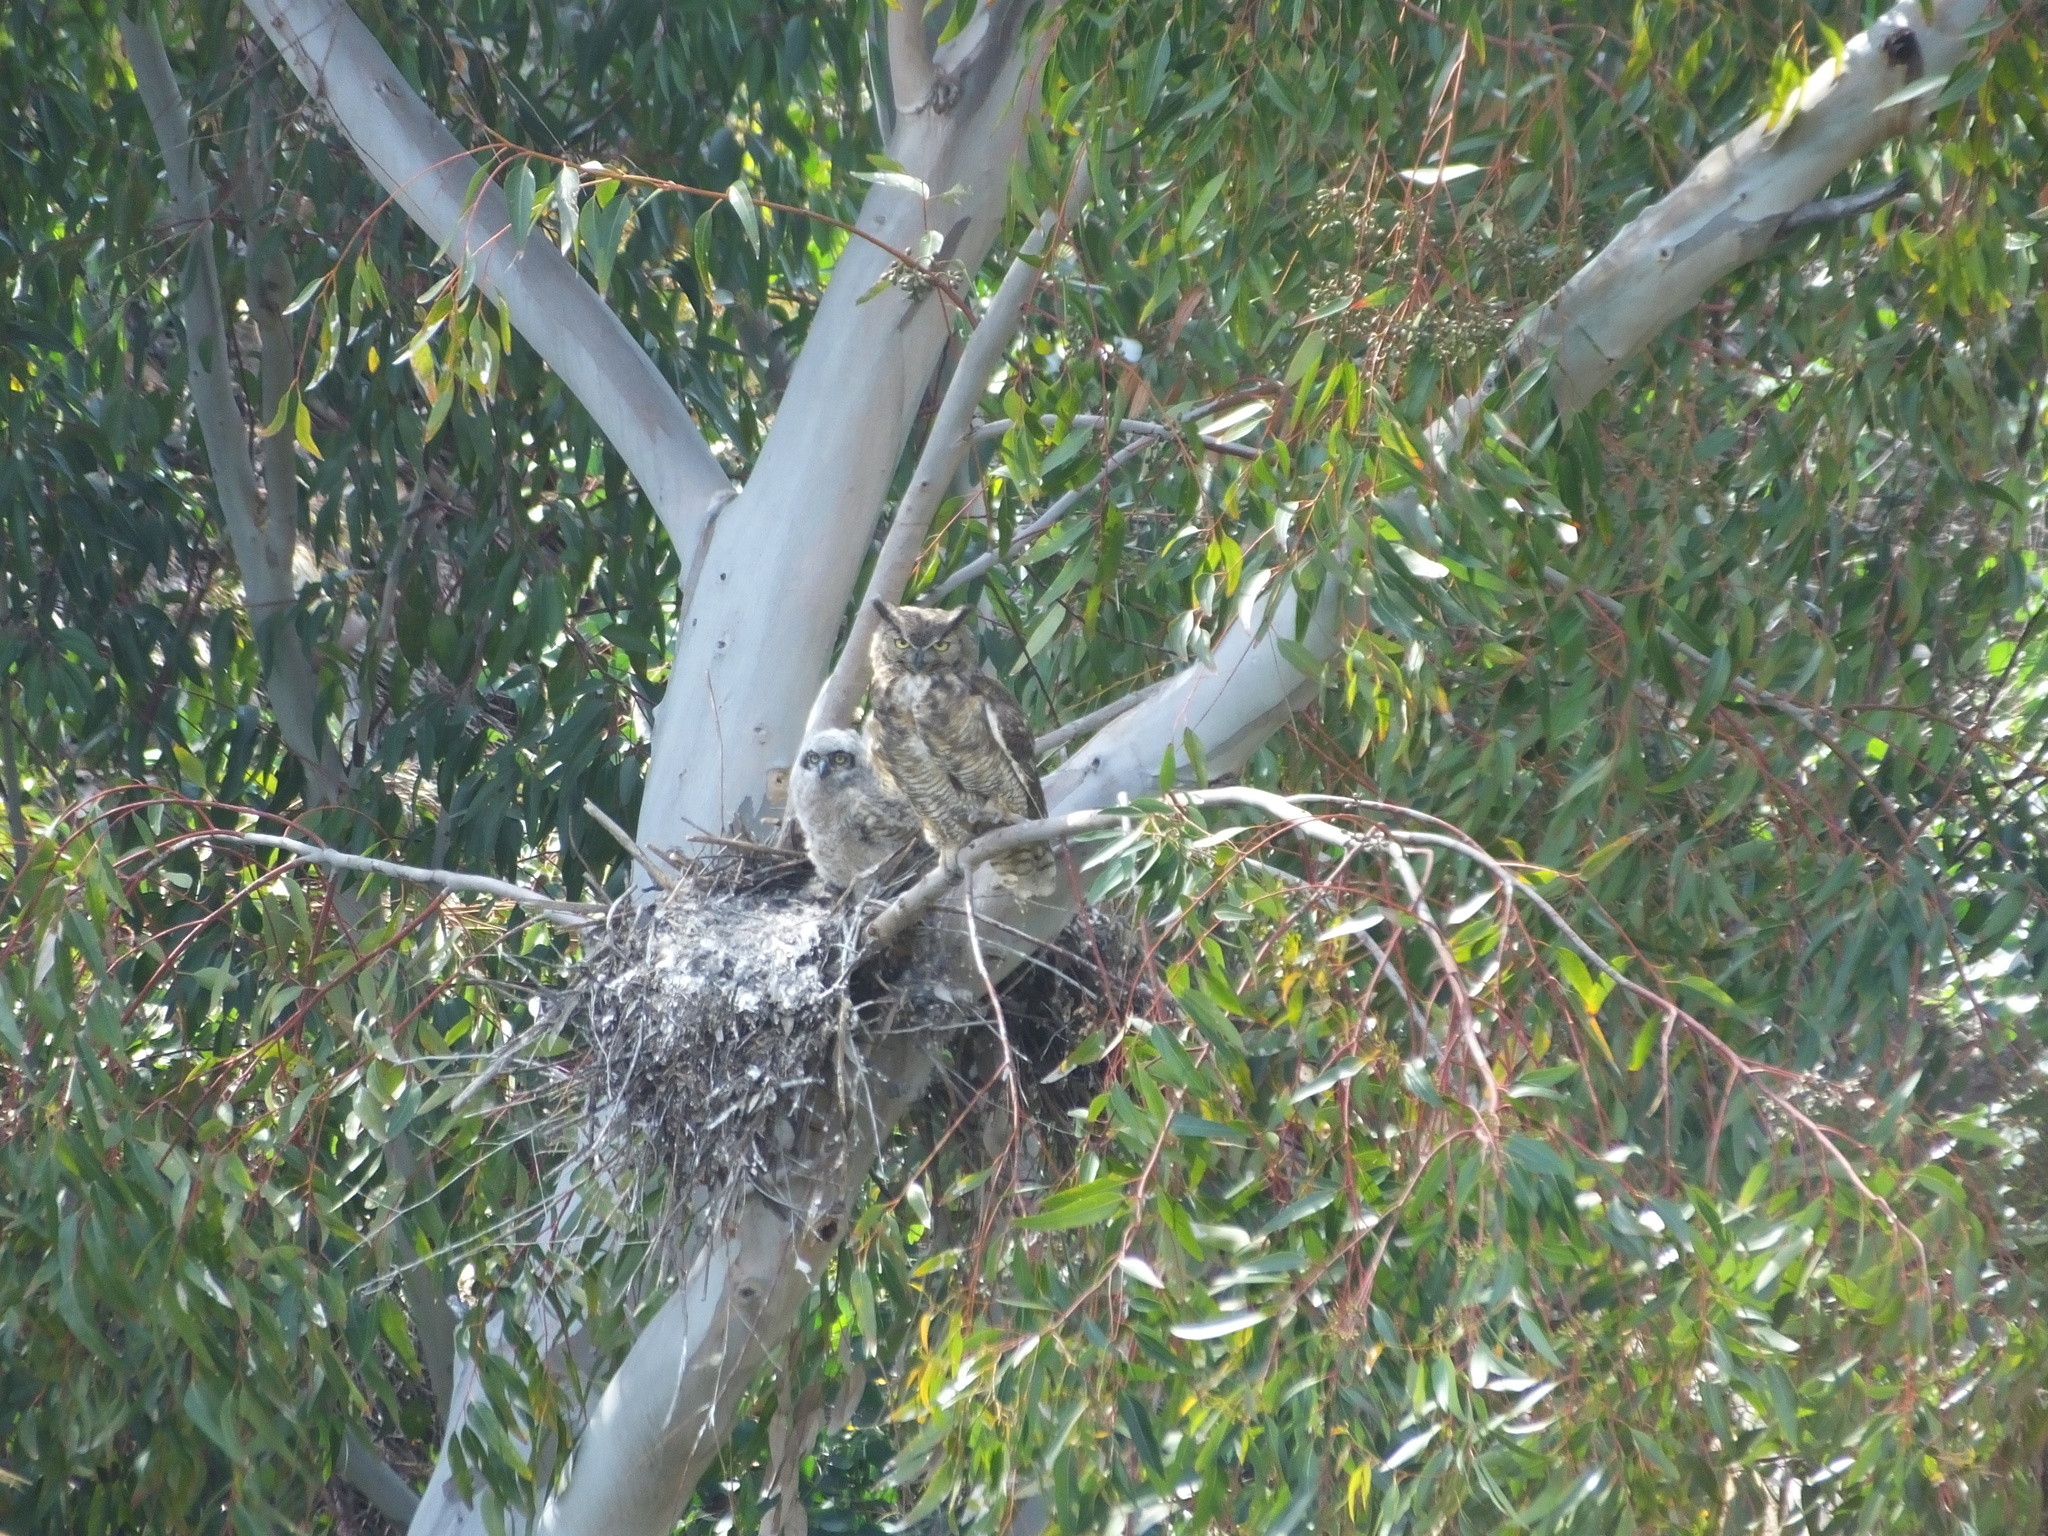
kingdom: Animalia
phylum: Chordata
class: Aves
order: Strigiformes
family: Strigidae
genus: Bubo
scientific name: Bubo virginianus
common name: Great horned owl
